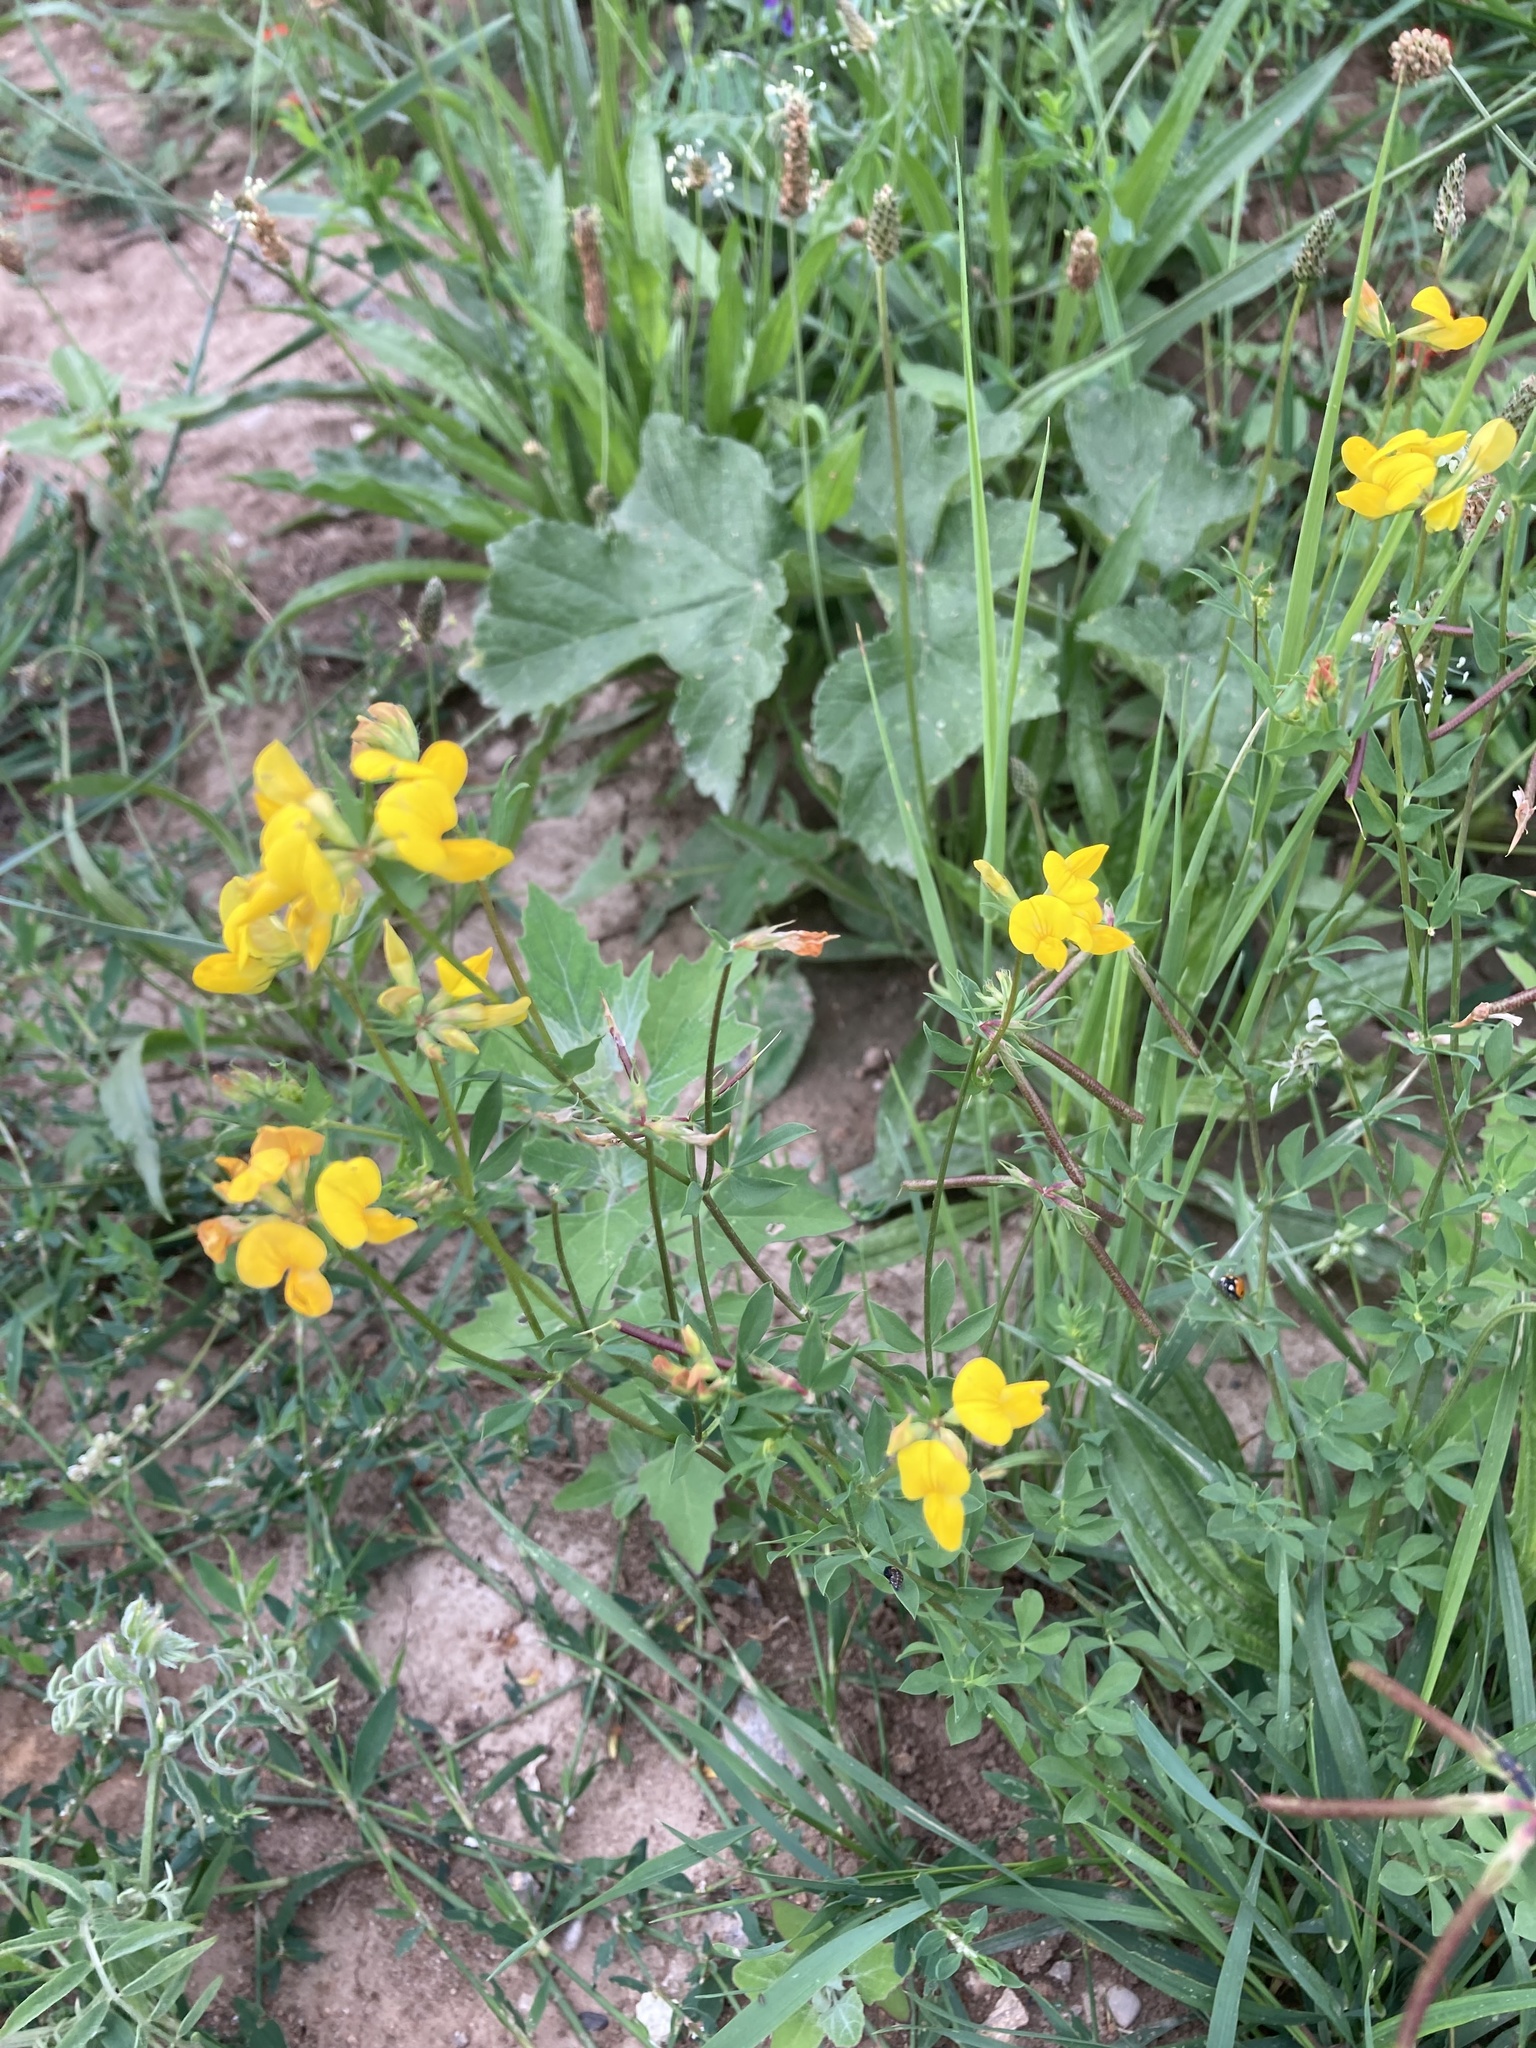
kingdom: Plantae
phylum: Tracheophyta
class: Magnoliopsida
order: Fabales
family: Fabaceae
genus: Lotus
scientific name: Lotus corniculatus
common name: Common bird's-foot-trefoil
